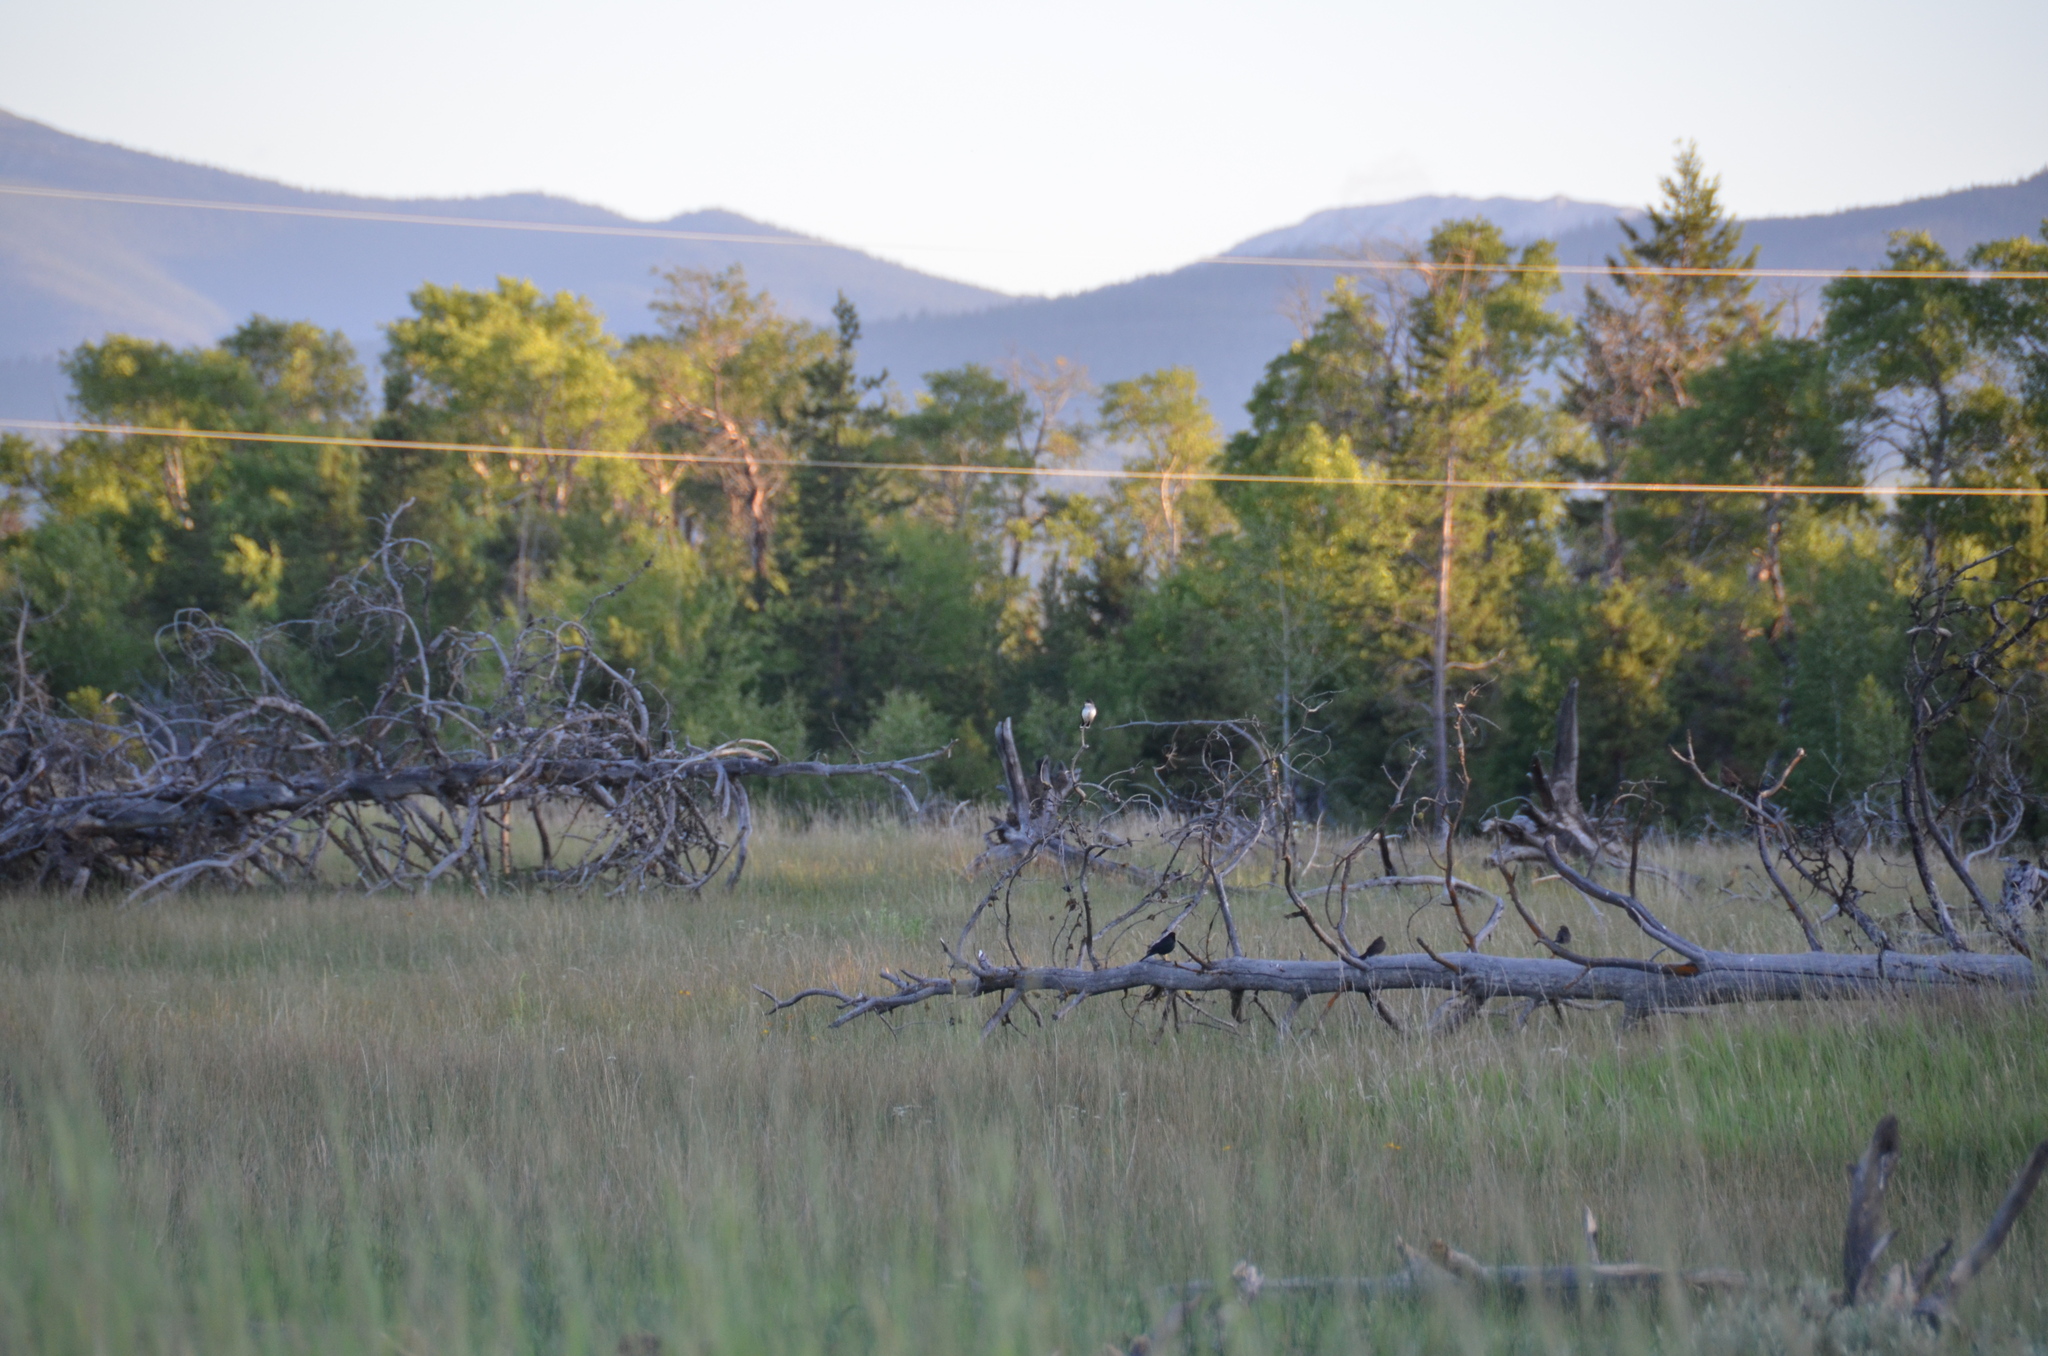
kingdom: Animalia
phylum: Chordata
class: Aves
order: Passeriformes
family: Icteridae
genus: Euphagus
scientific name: Euphagus cyanocephalus
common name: Brewer's blackbird
